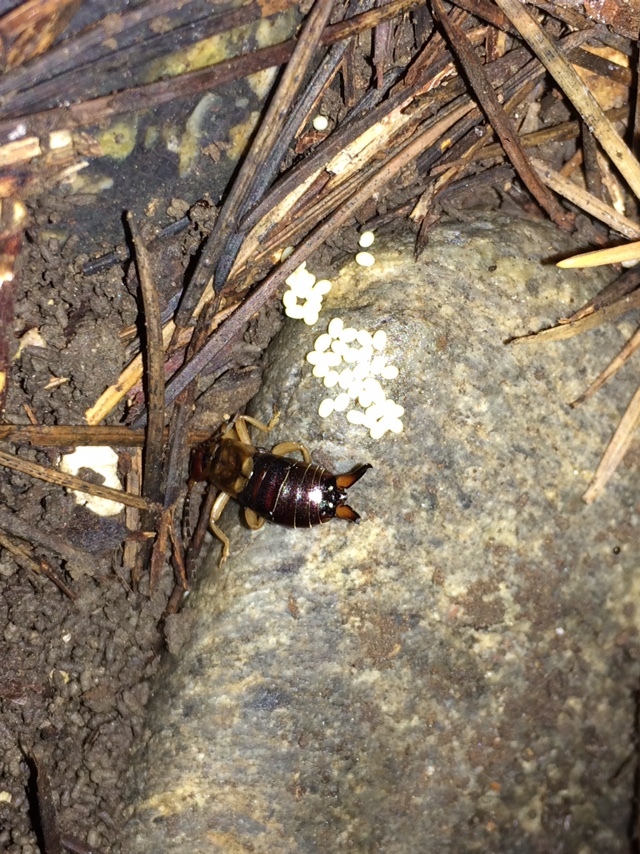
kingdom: Animalia
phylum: Arthropoda
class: Insecta
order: Dermaptera
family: Forficulidae
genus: Forficula
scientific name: Forficula
